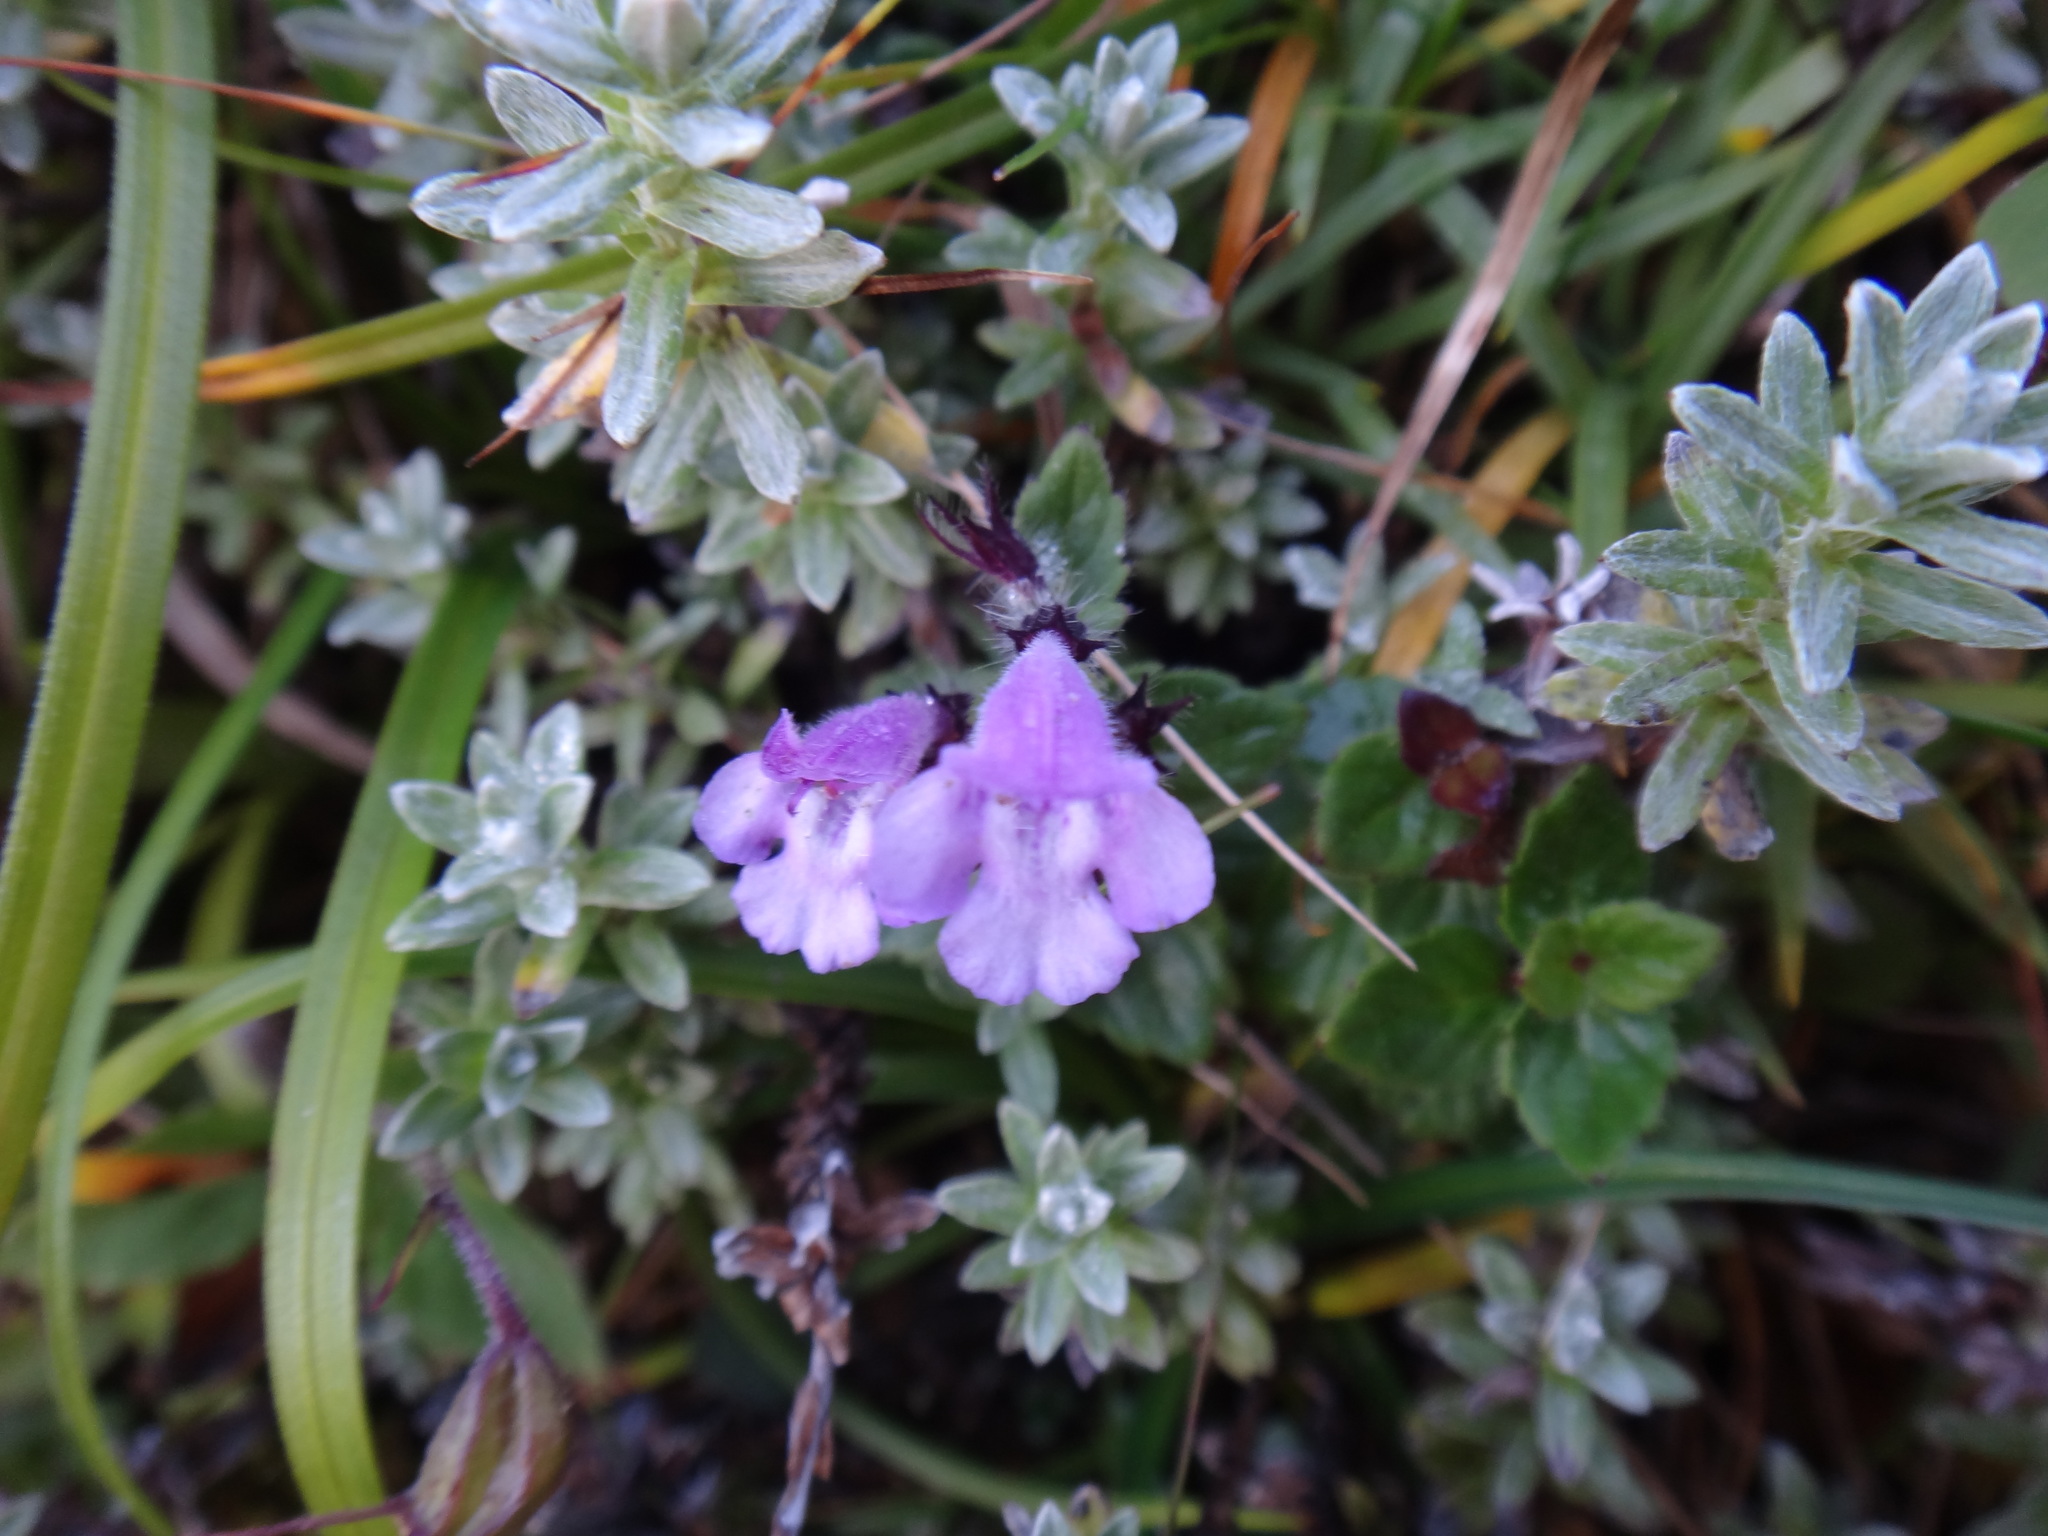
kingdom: Plantae
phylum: Tracheophyta
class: Magnoliopsida
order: Lamiales
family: Lamiaceae
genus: Clinopodium
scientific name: Clinopodium laxiflorum
